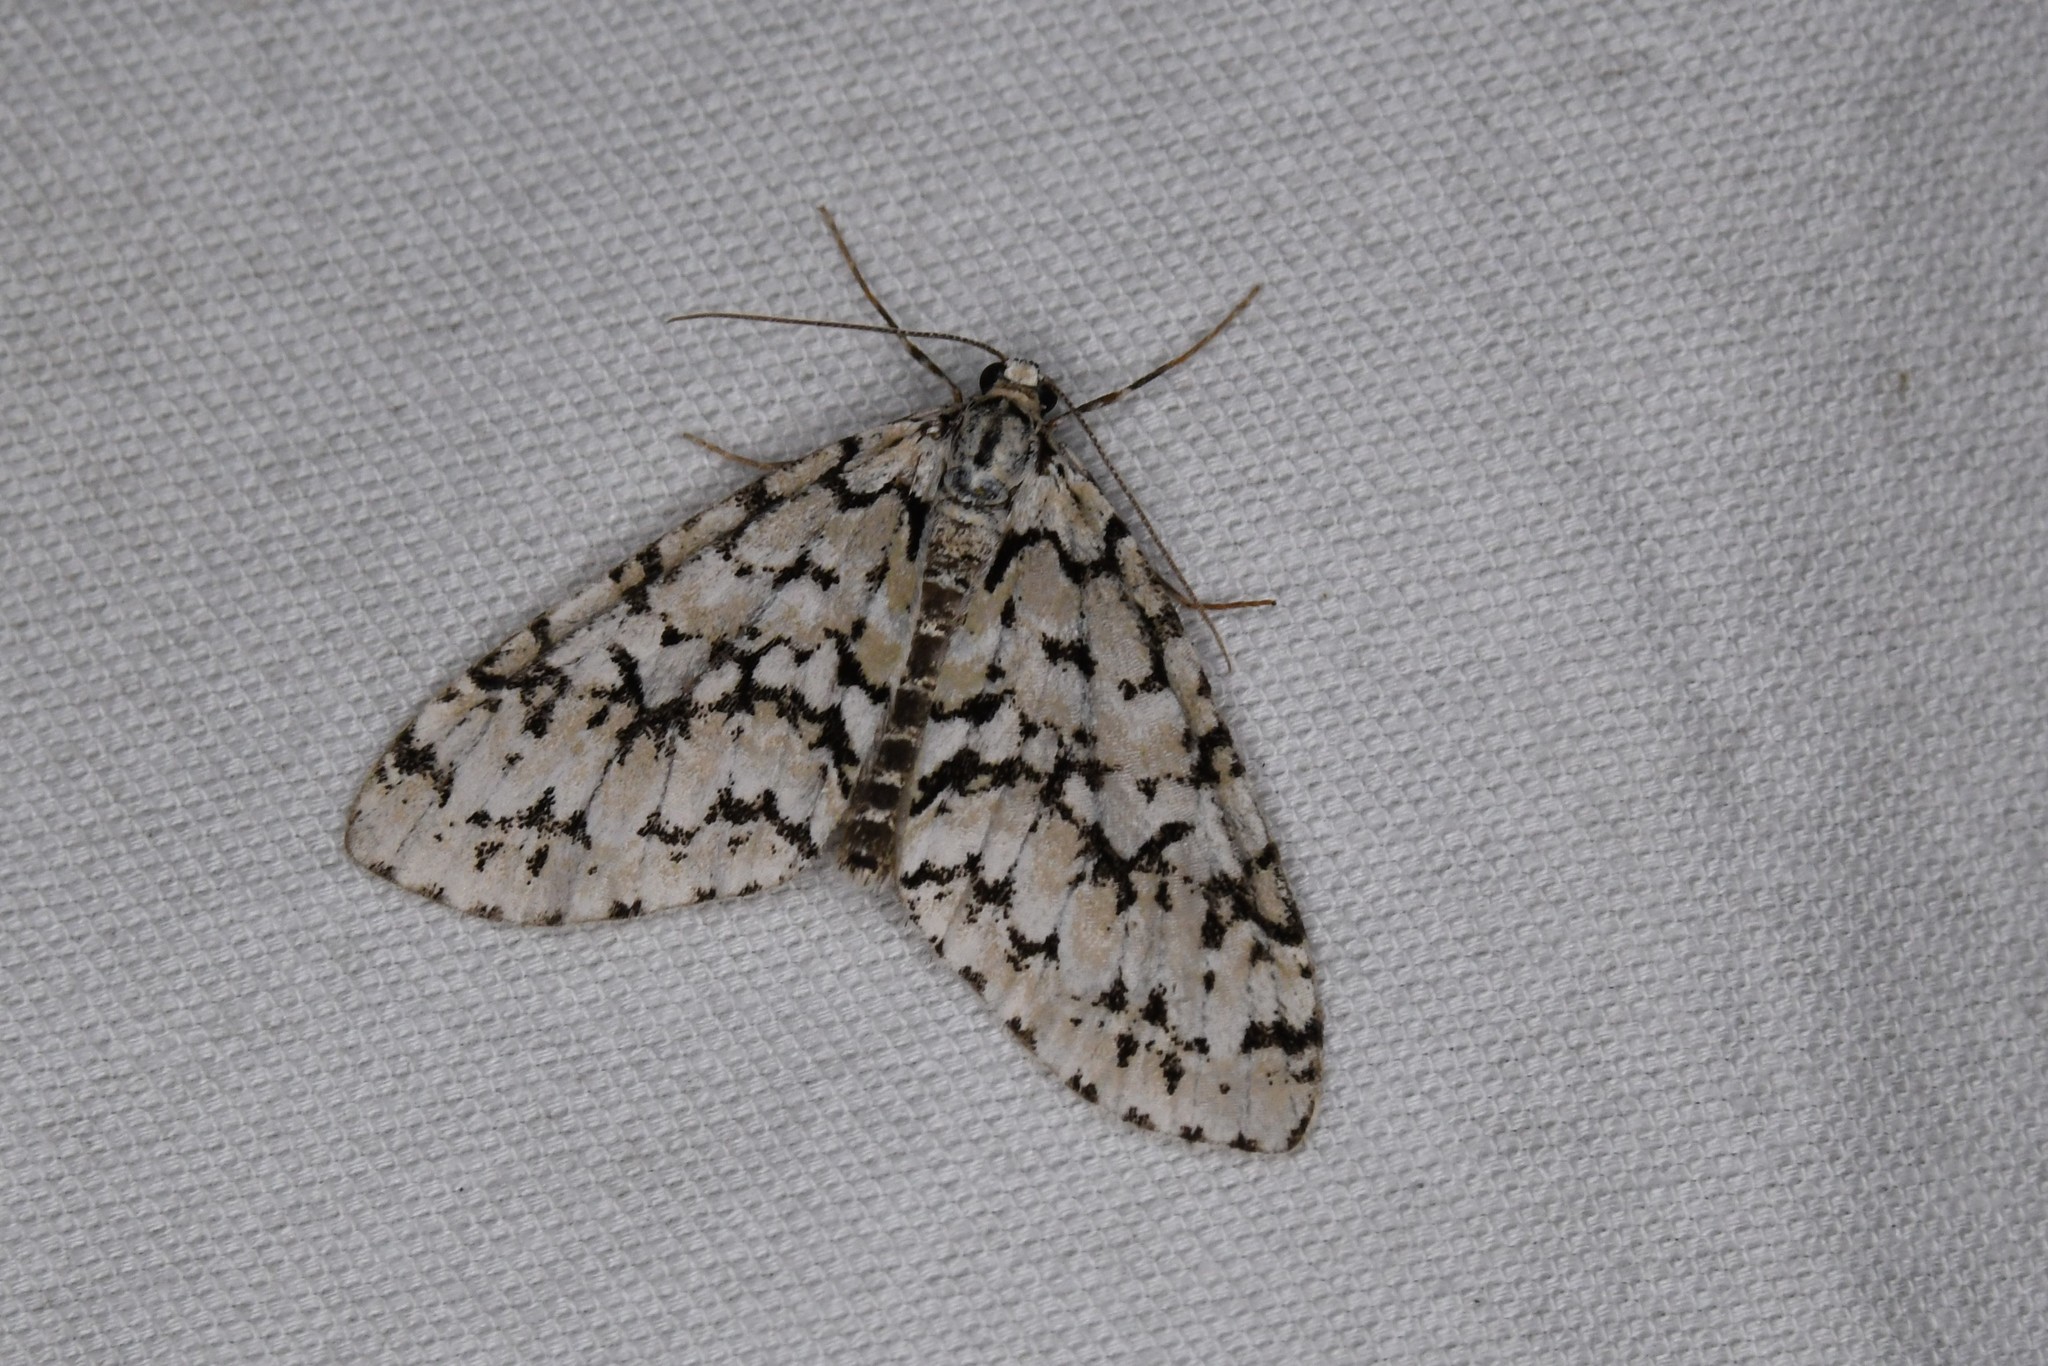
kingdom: Animalia
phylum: Arthropoda
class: Insecta
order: Lepidoptera
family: Geometridae
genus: Cladara
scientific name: Cladara atroliturata
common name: Scribbler
